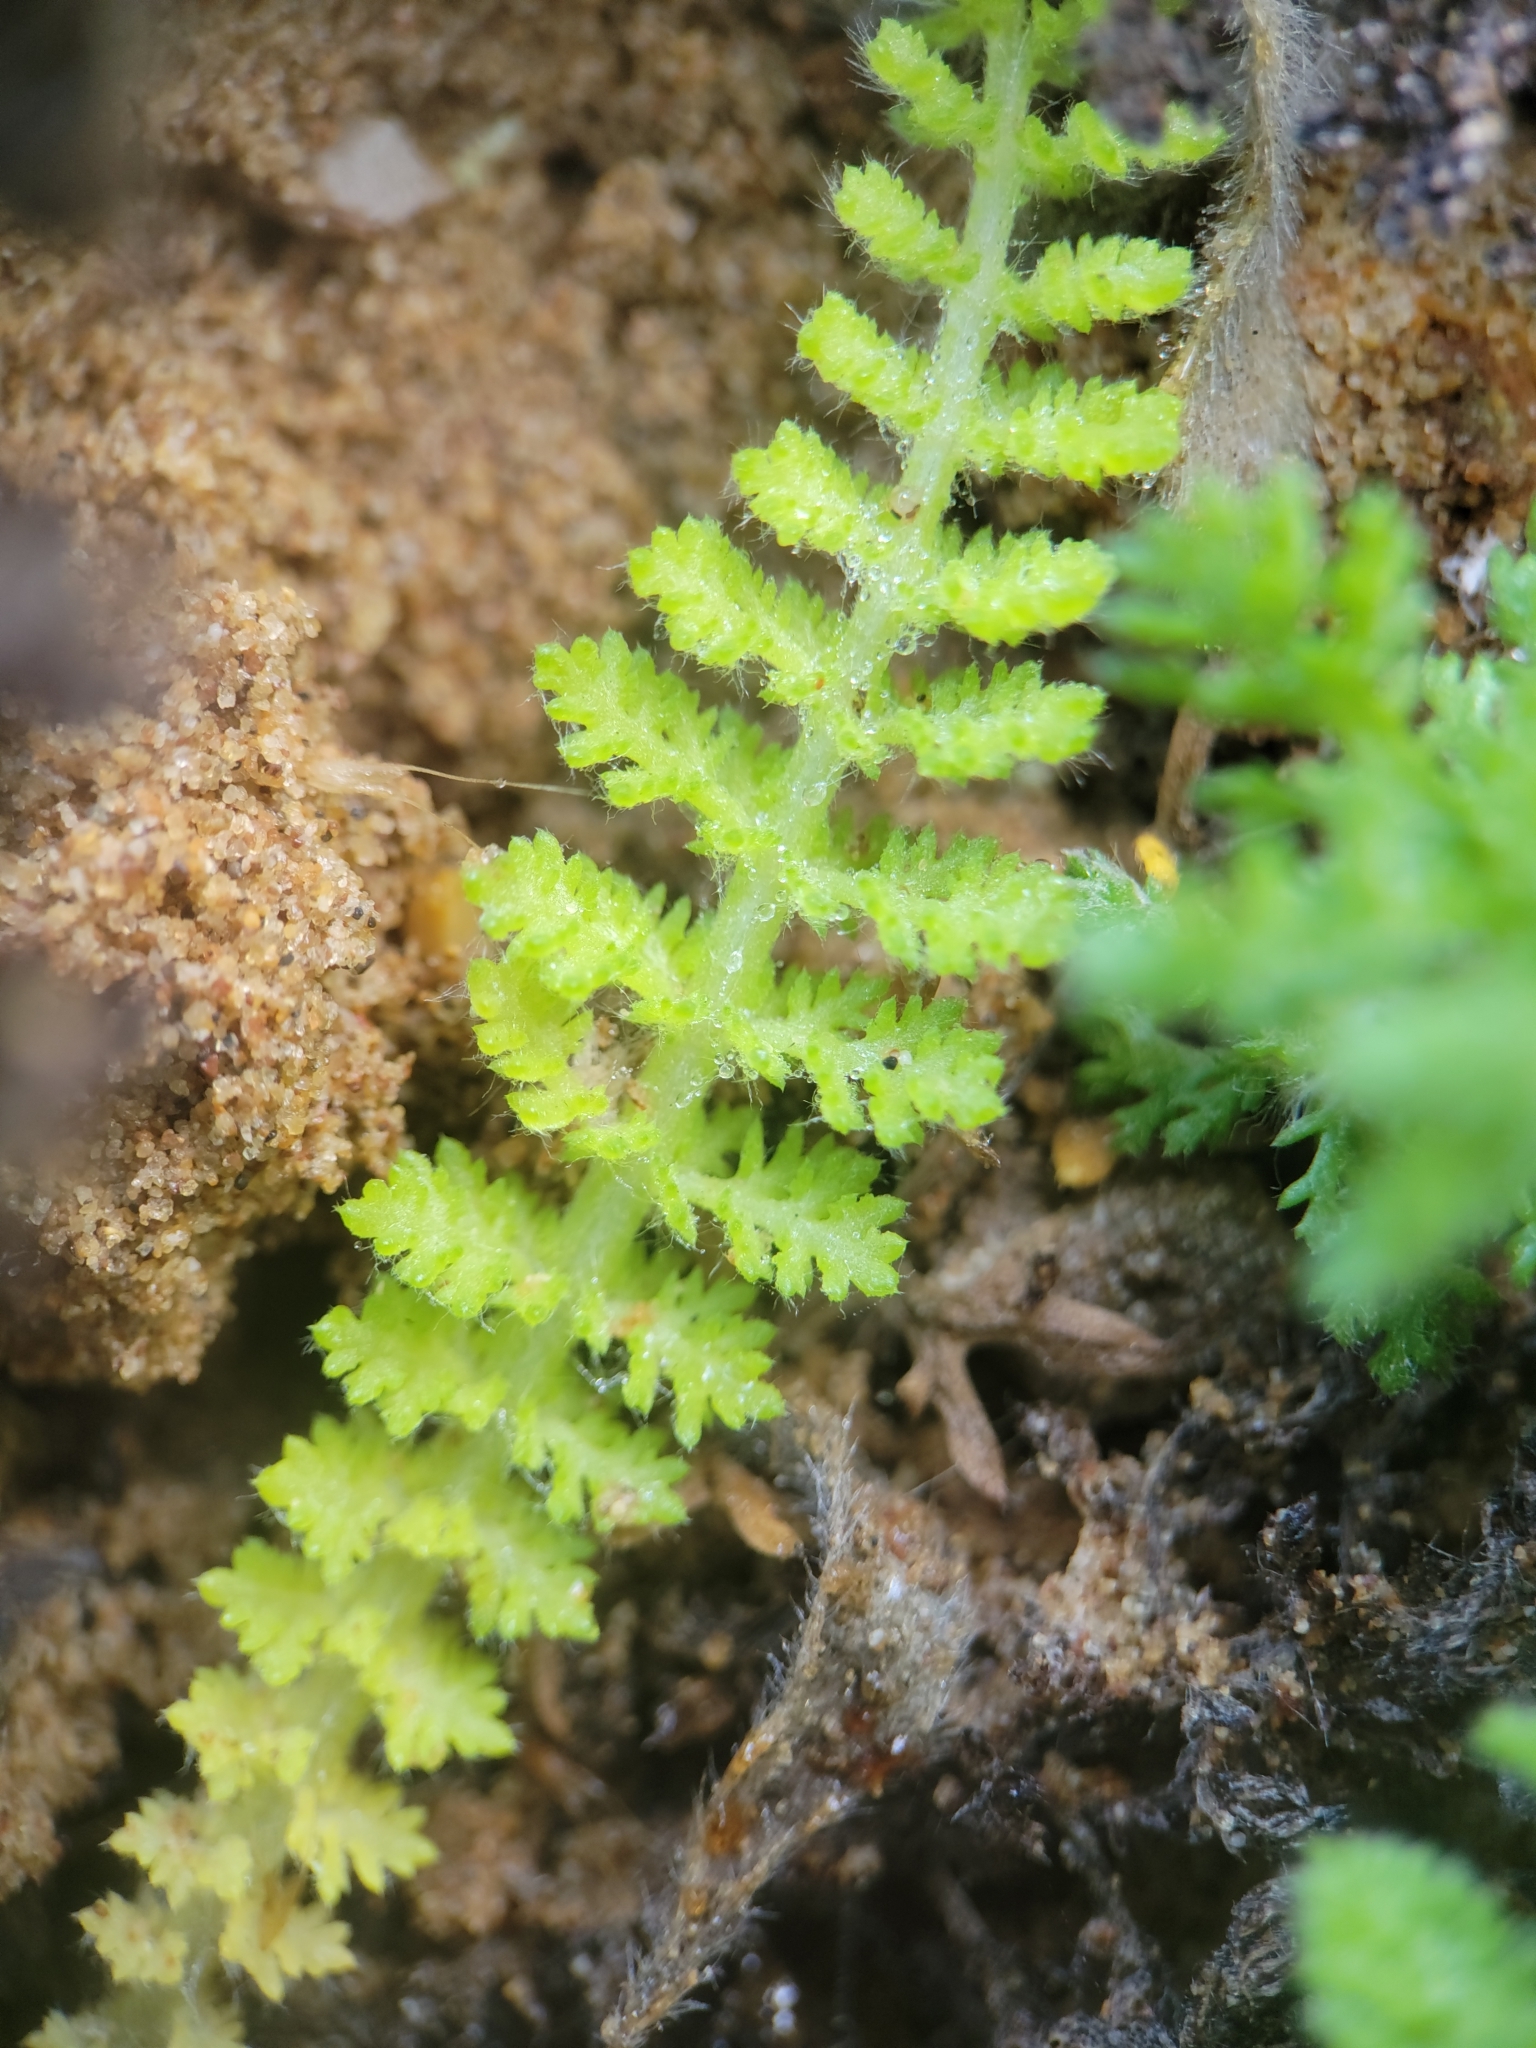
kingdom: Plantae
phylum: Tracheophyta
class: Magnoliopsida
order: Asterales
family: Asteraceae
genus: Achillea
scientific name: Achillea millefolium
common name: Yarrow
